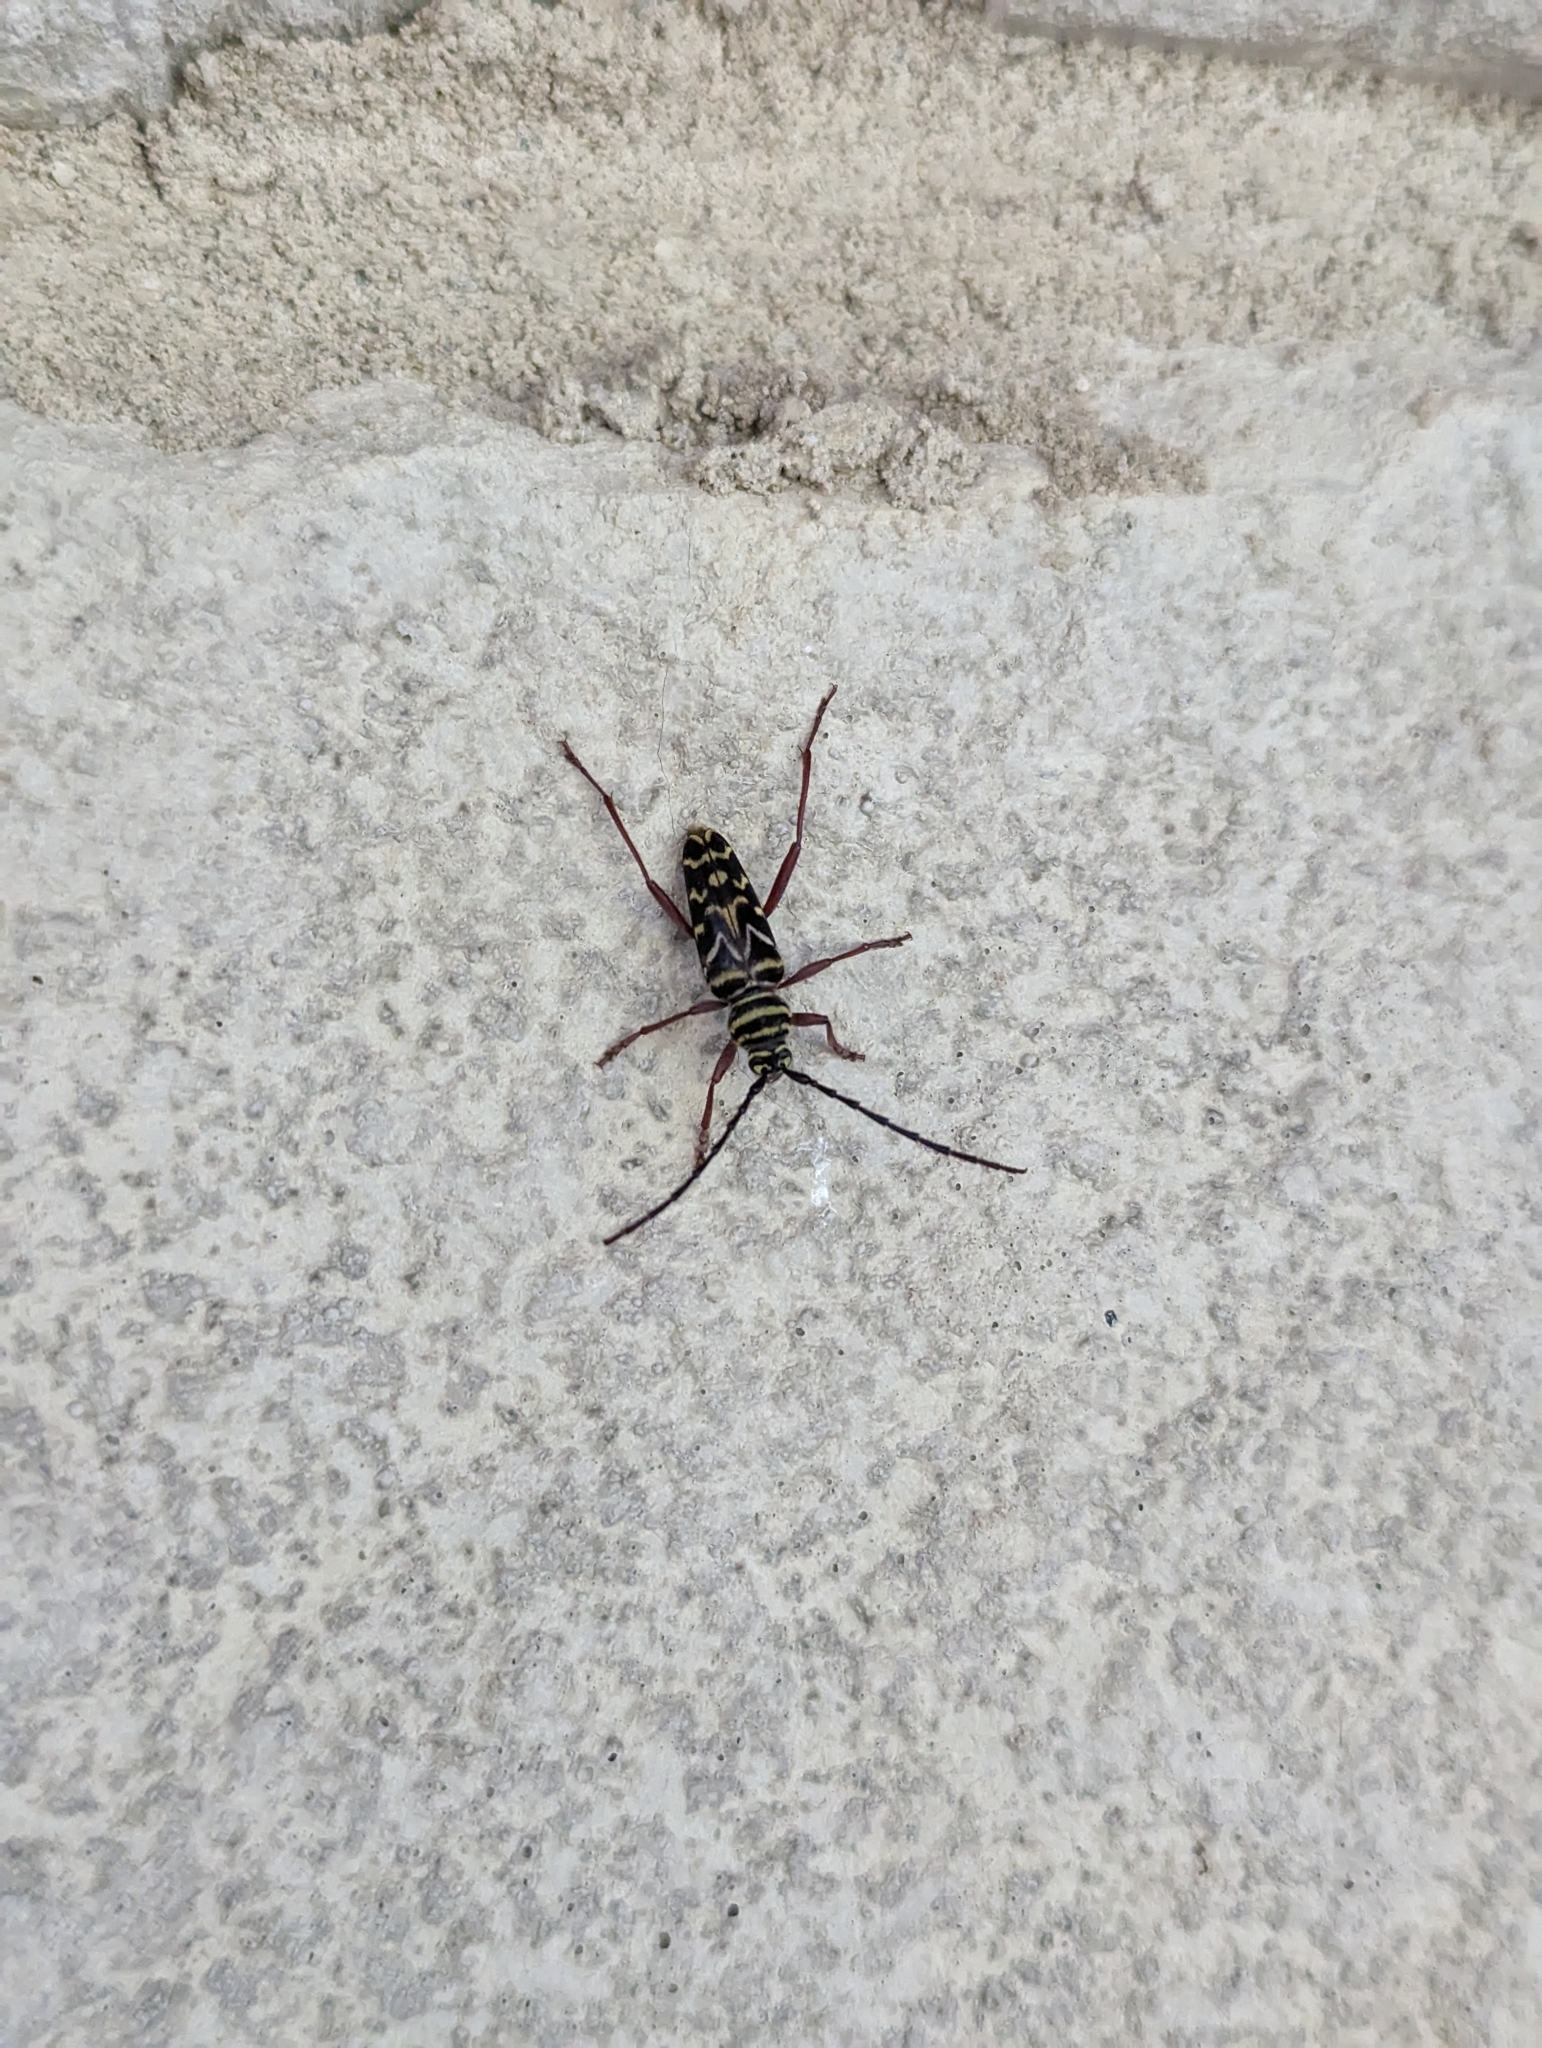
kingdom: Animalia
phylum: Arthropoda
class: Insecta
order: Coleoptera
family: Cerambycidae
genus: Megacyllene
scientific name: Megacyllene caryae
